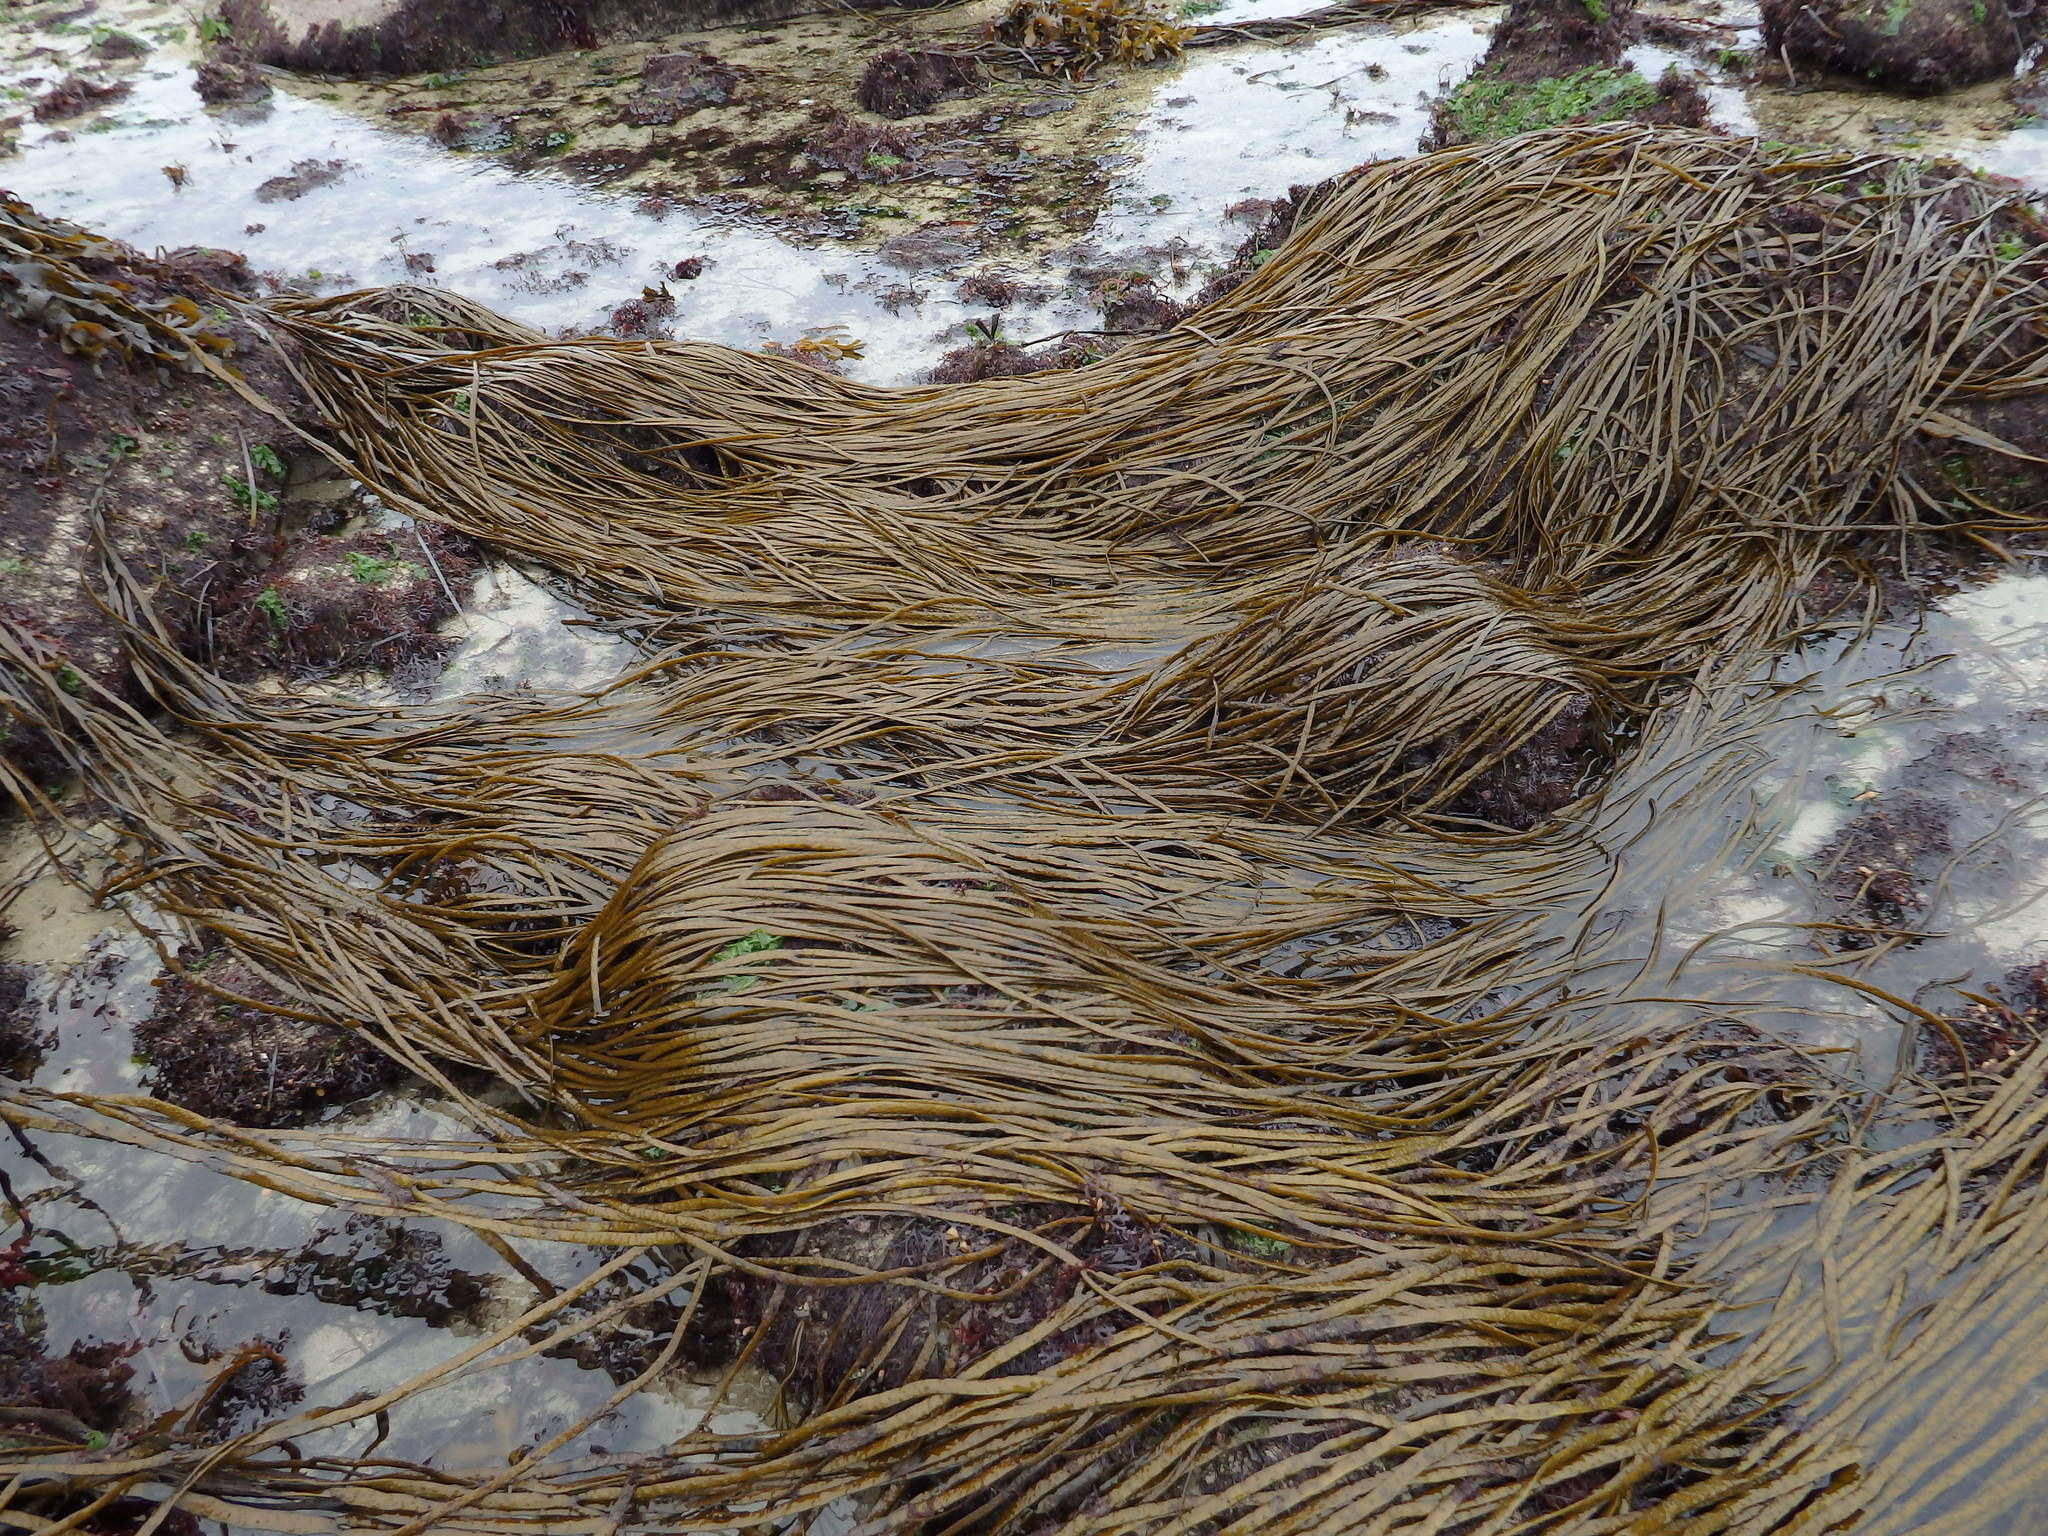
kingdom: Chromista
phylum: Ochrophyta
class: Phaeophyceae
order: Fucales
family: Himanthaliaceae
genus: Himanthalia
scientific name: Himanthalia elongata
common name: Sea-thong
